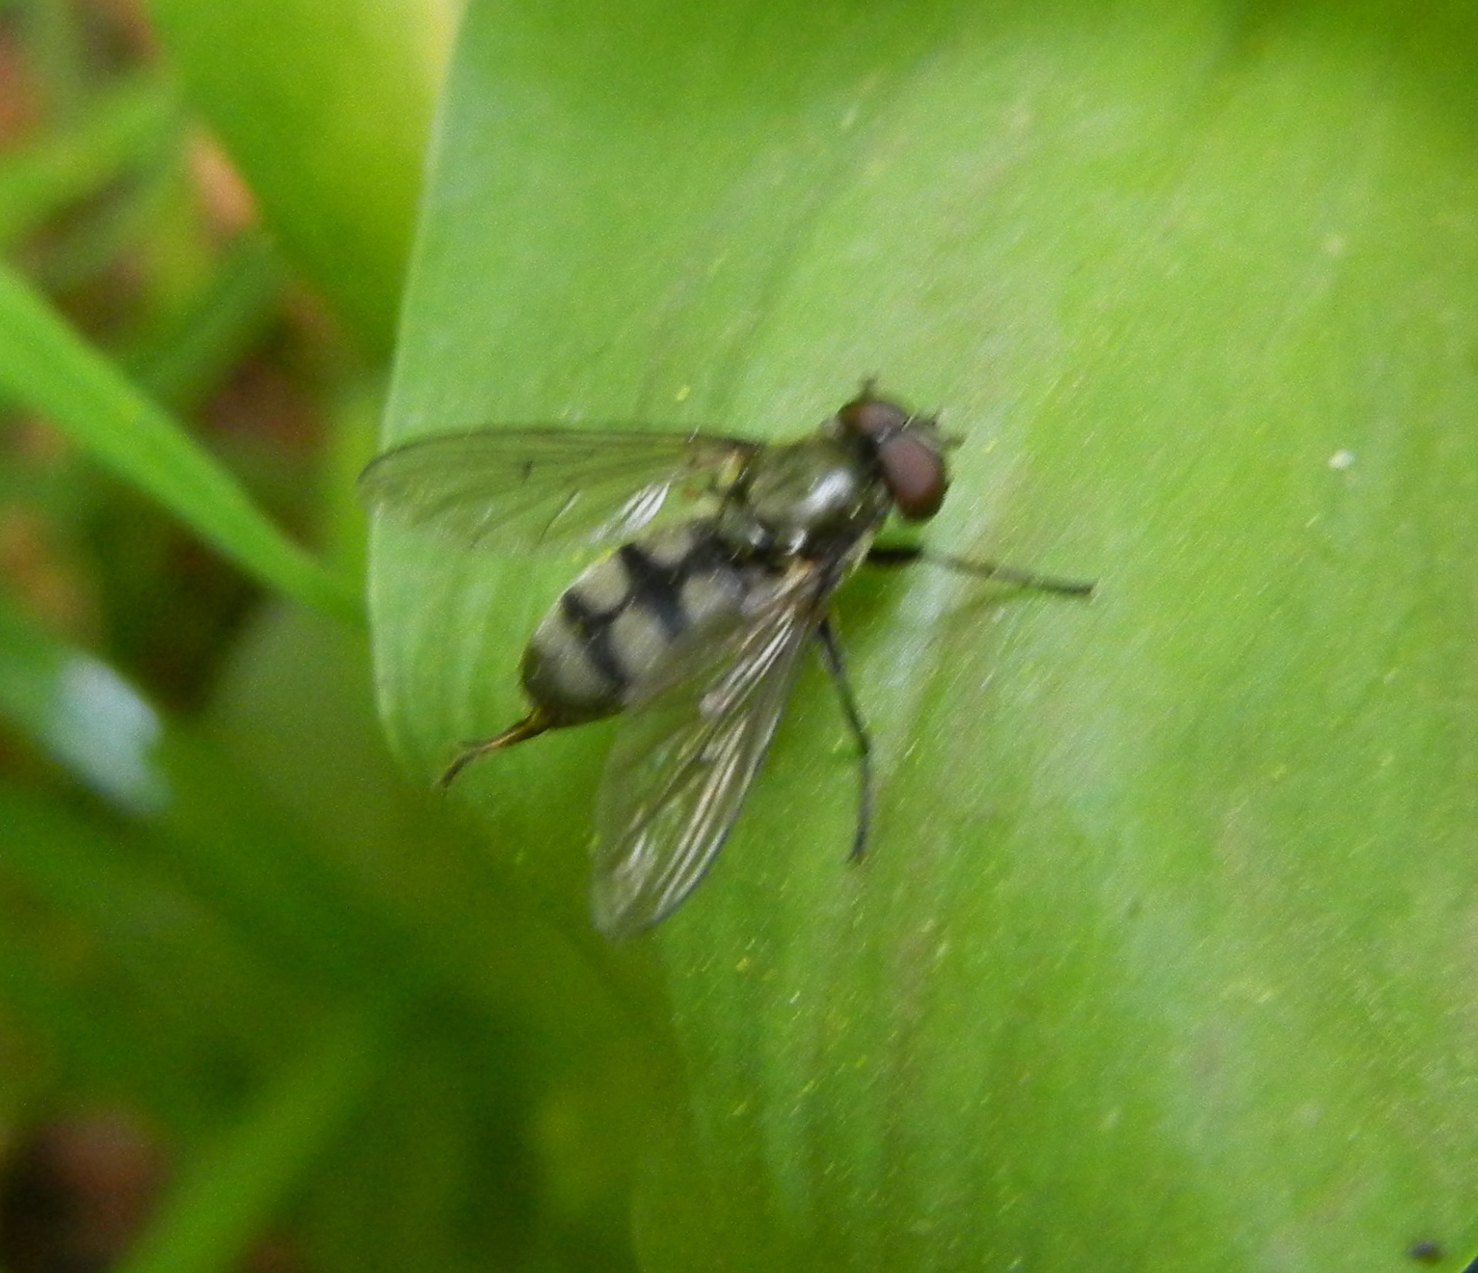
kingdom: Animalia
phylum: Arthropoda
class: Insecta
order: Diptera
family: Syrphidae
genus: Portevinia
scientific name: Portevinia maculata
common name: Ramson's hoverfly
